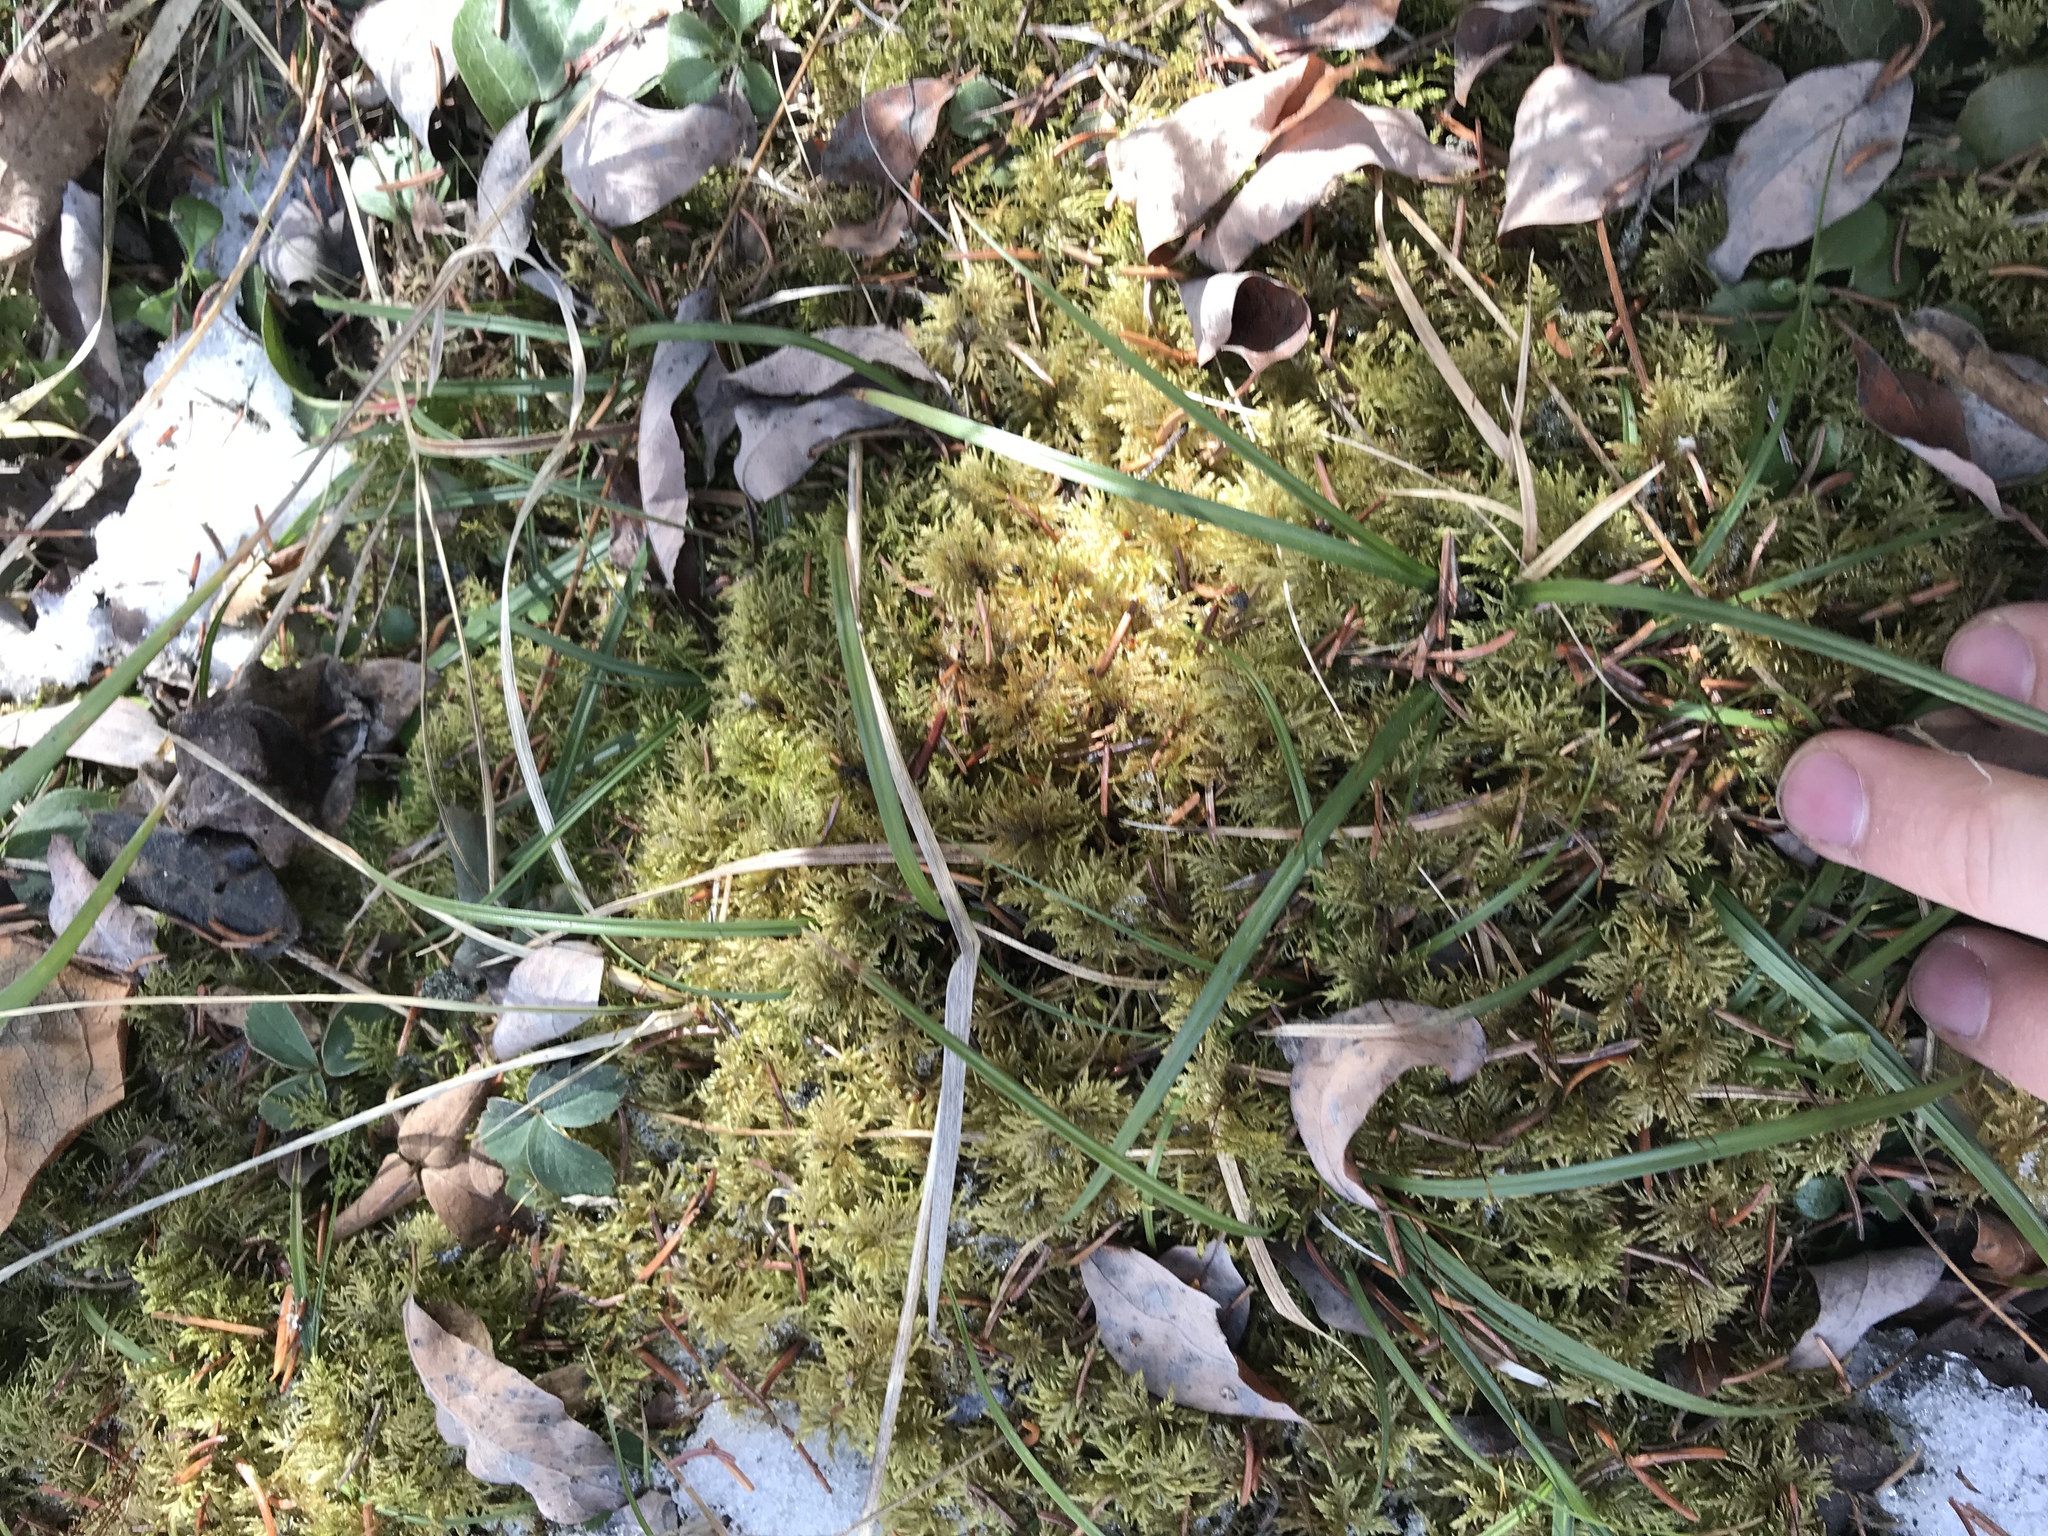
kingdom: Plantae
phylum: Bryophyta
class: Bryopsida
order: Hypnales
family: Hylocomiaceae
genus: Hylocomium
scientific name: Hylocomium splendens
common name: Stairstep moss
